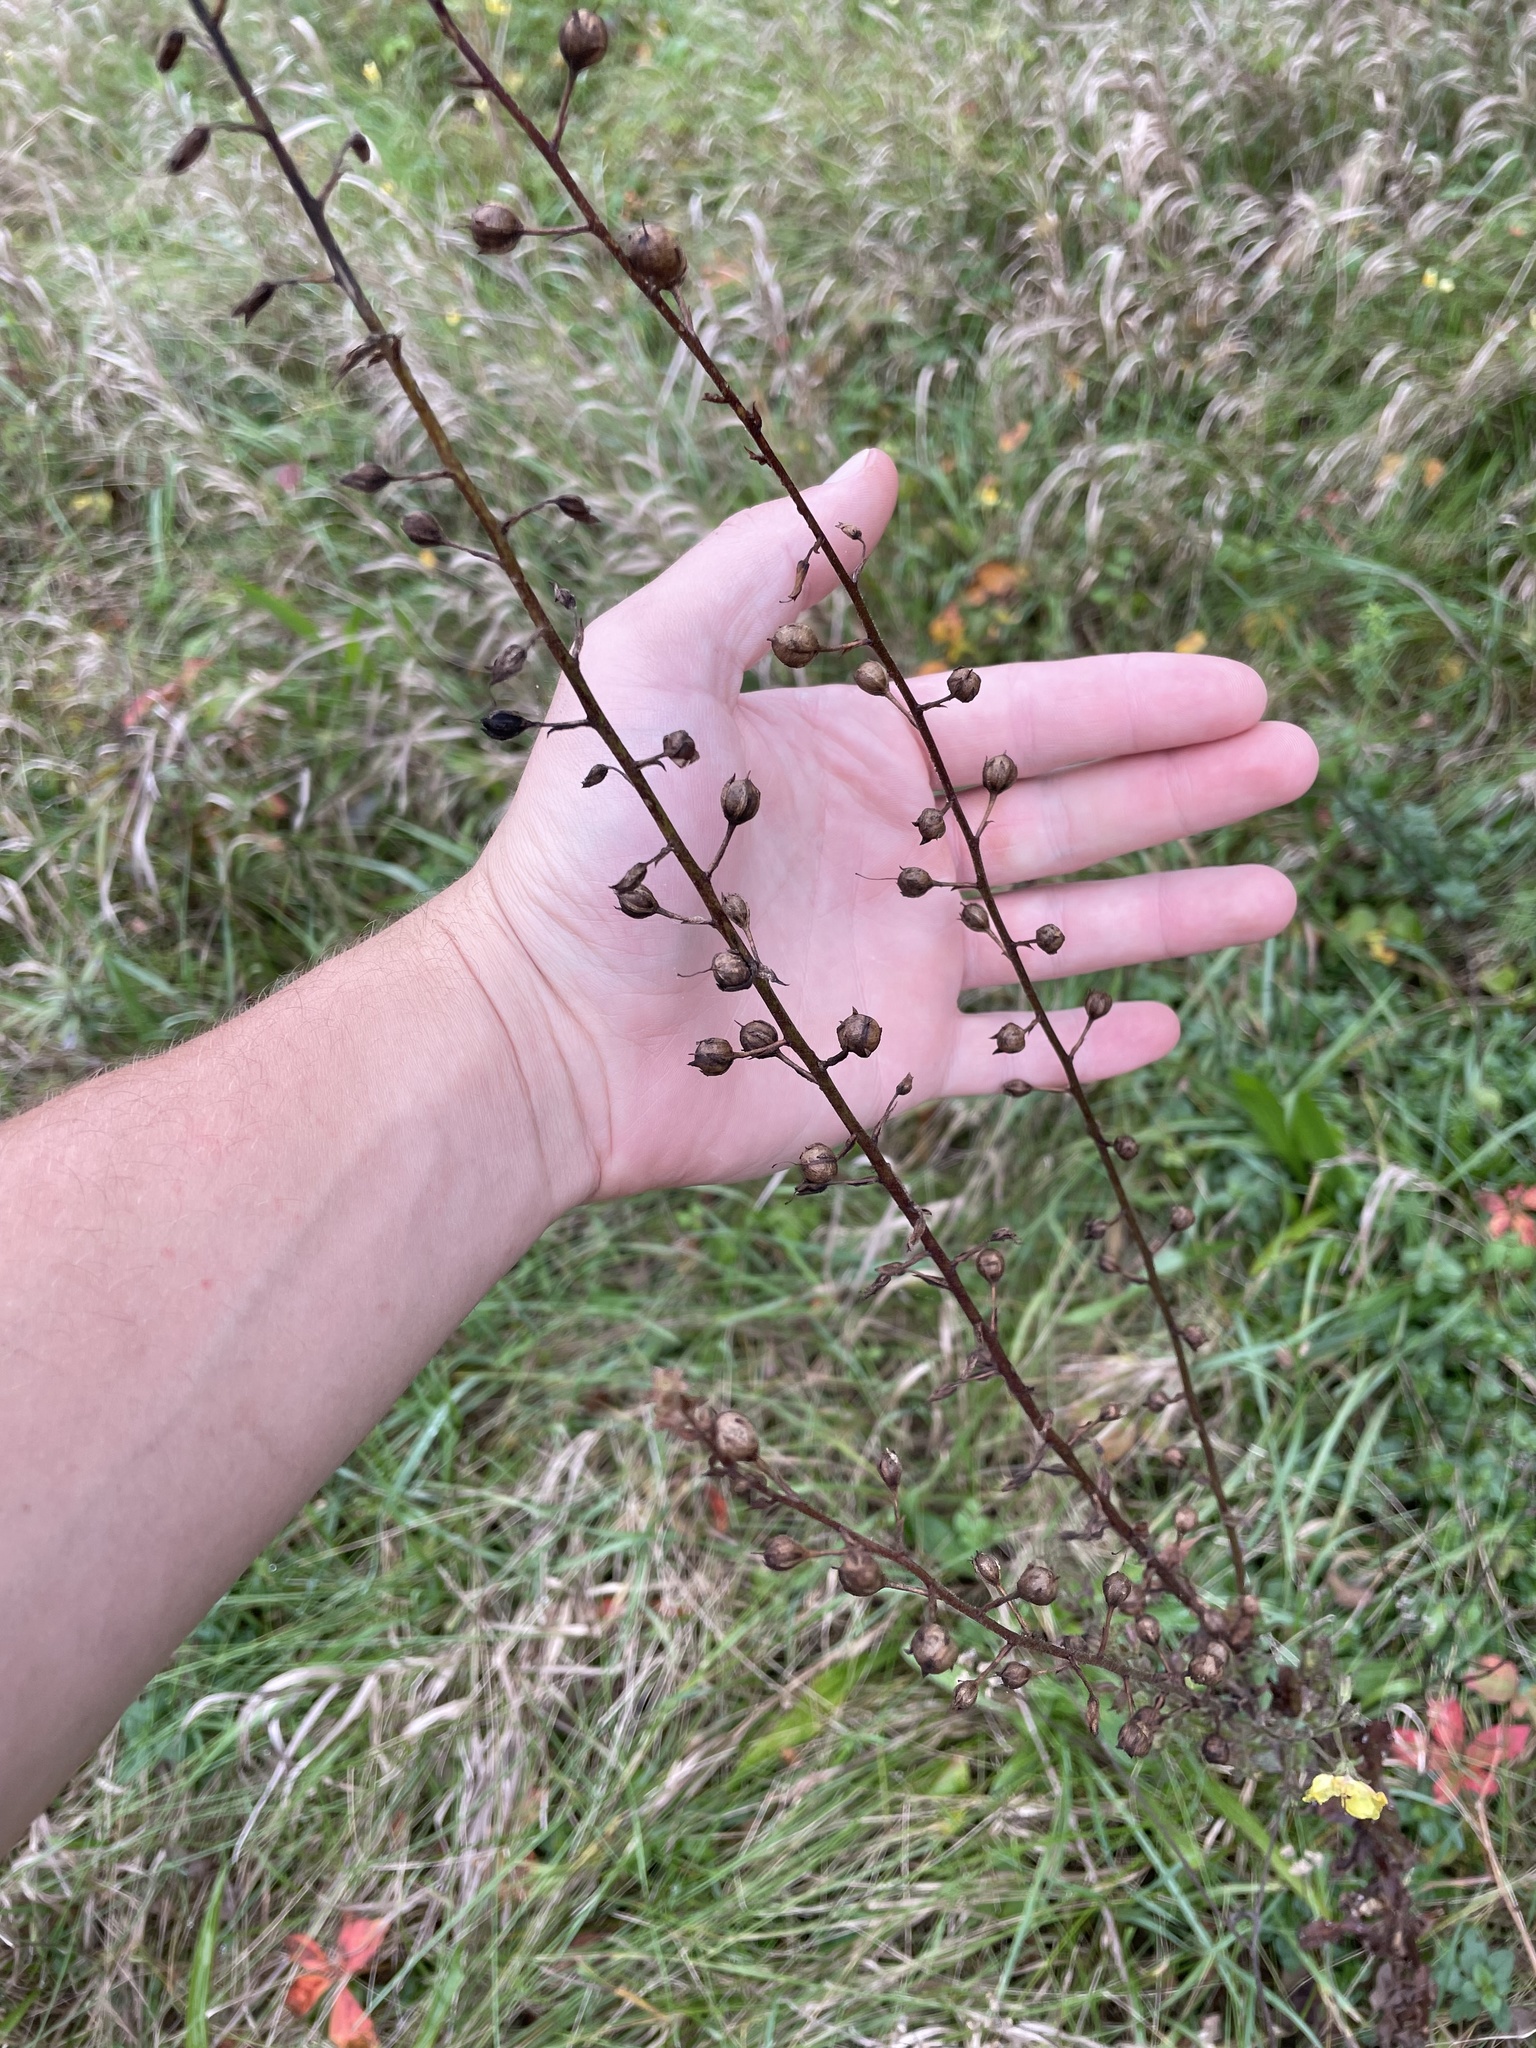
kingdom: Plantae
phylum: Tracheophyta
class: Magnoliopsida
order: Lamiales
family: Scrophulariaceae
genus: Verbascum
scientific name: Verbascum blattaria
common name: Moth mullein
